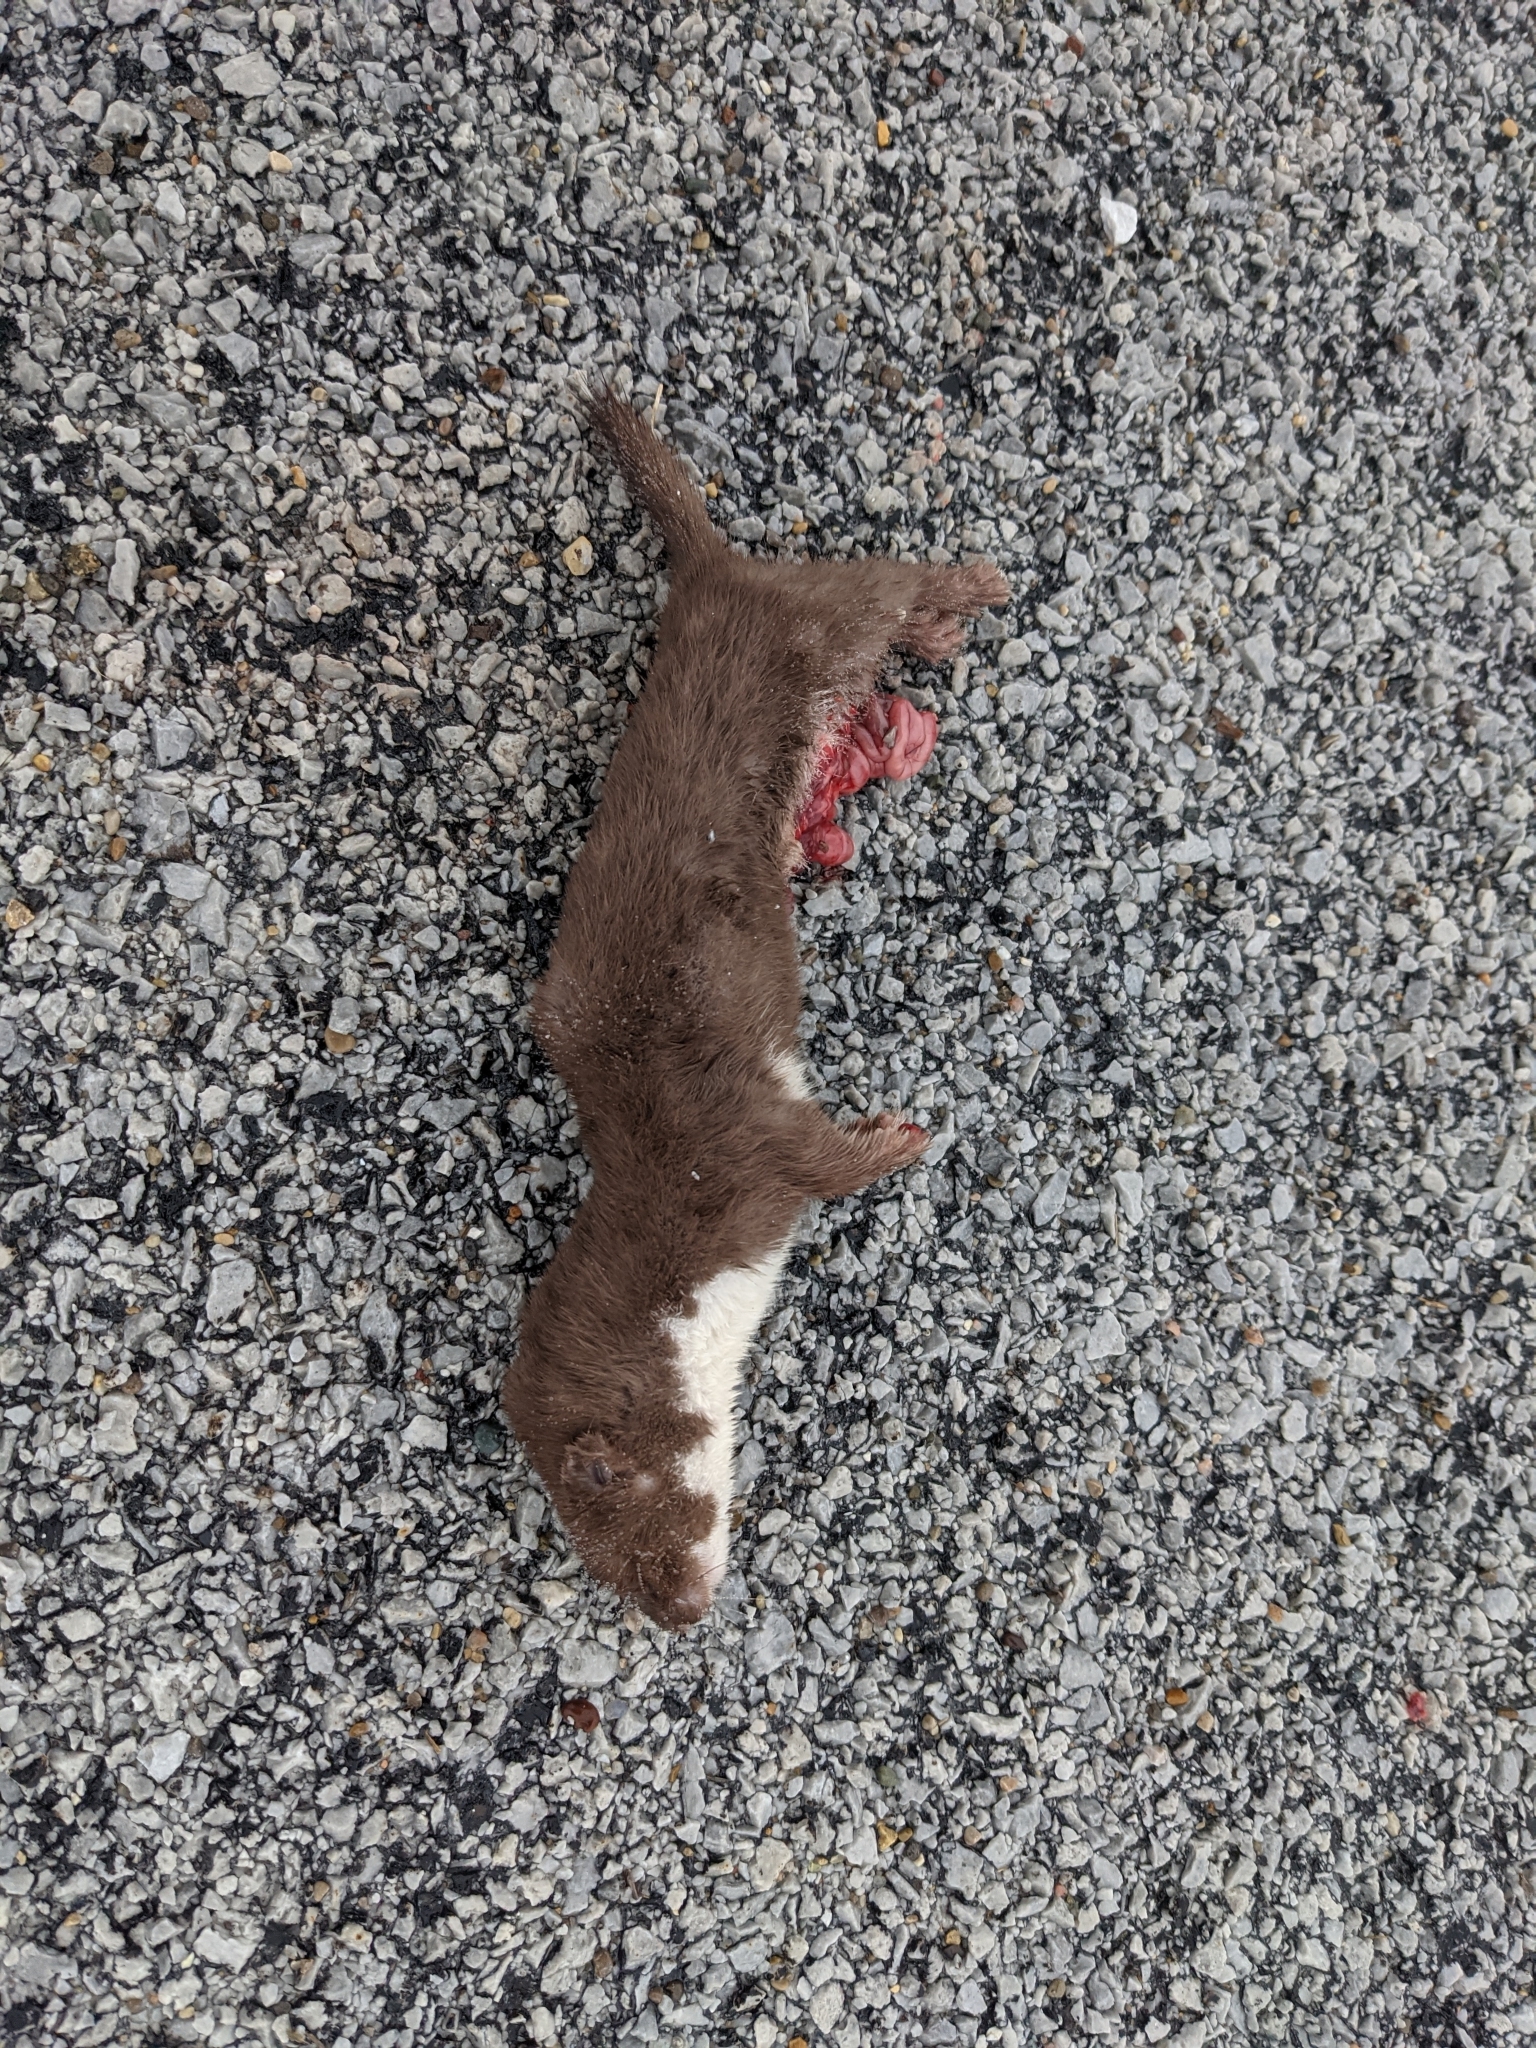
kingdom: Animalia
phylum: Chordata
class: Mammalia
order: Carnivora
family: Mustelidae
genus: Mustela
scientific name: Mustela nivalis
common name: Least weasel
